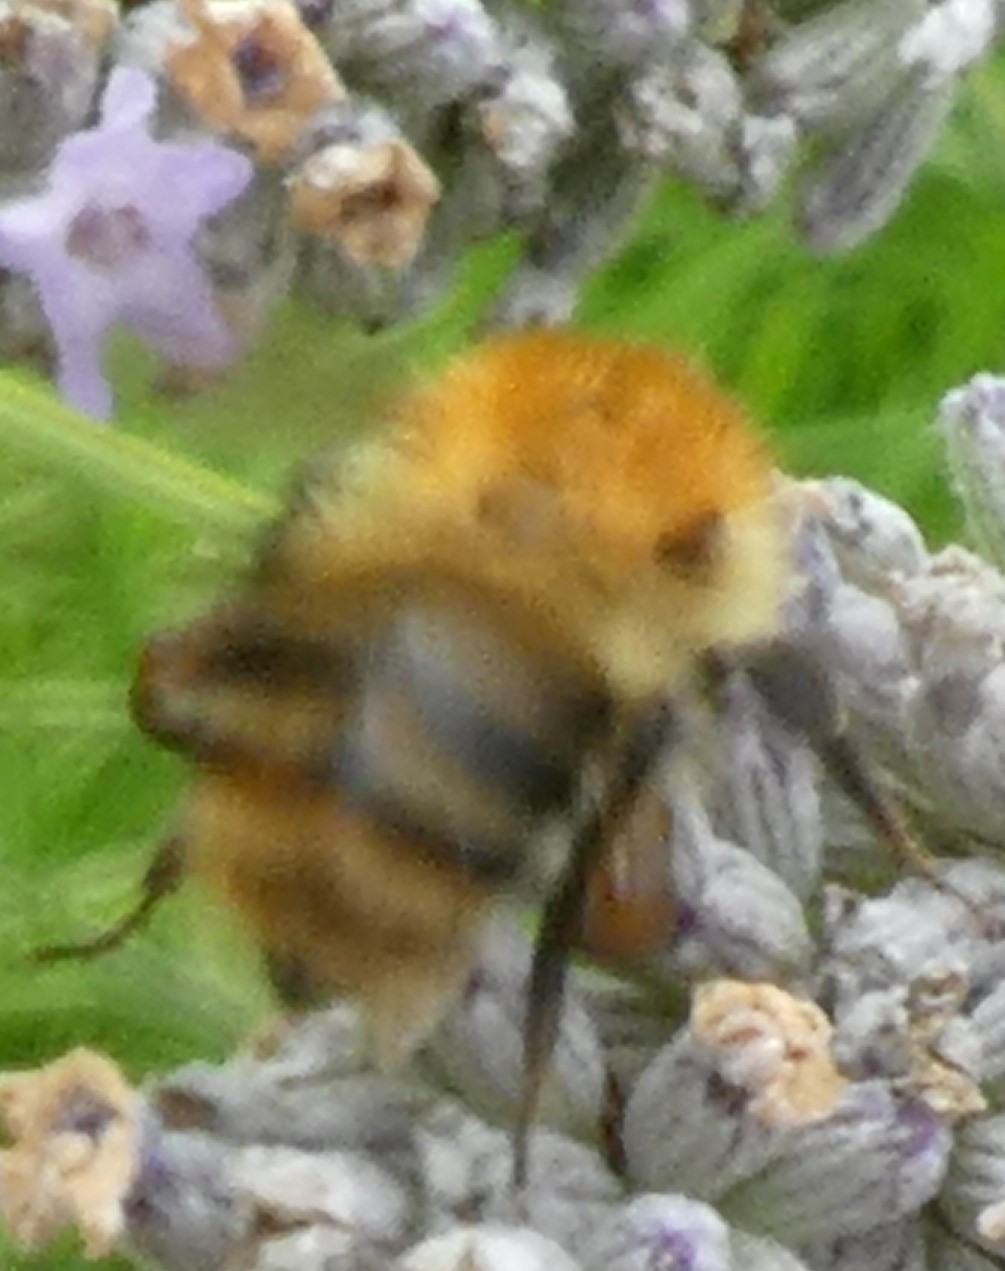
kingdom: Animalia
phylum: Arthropoda
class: Insecta
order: Hymenoptera
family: Apidae
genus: Bombus
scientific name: Bombus pascuorum
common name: Common carder bee
